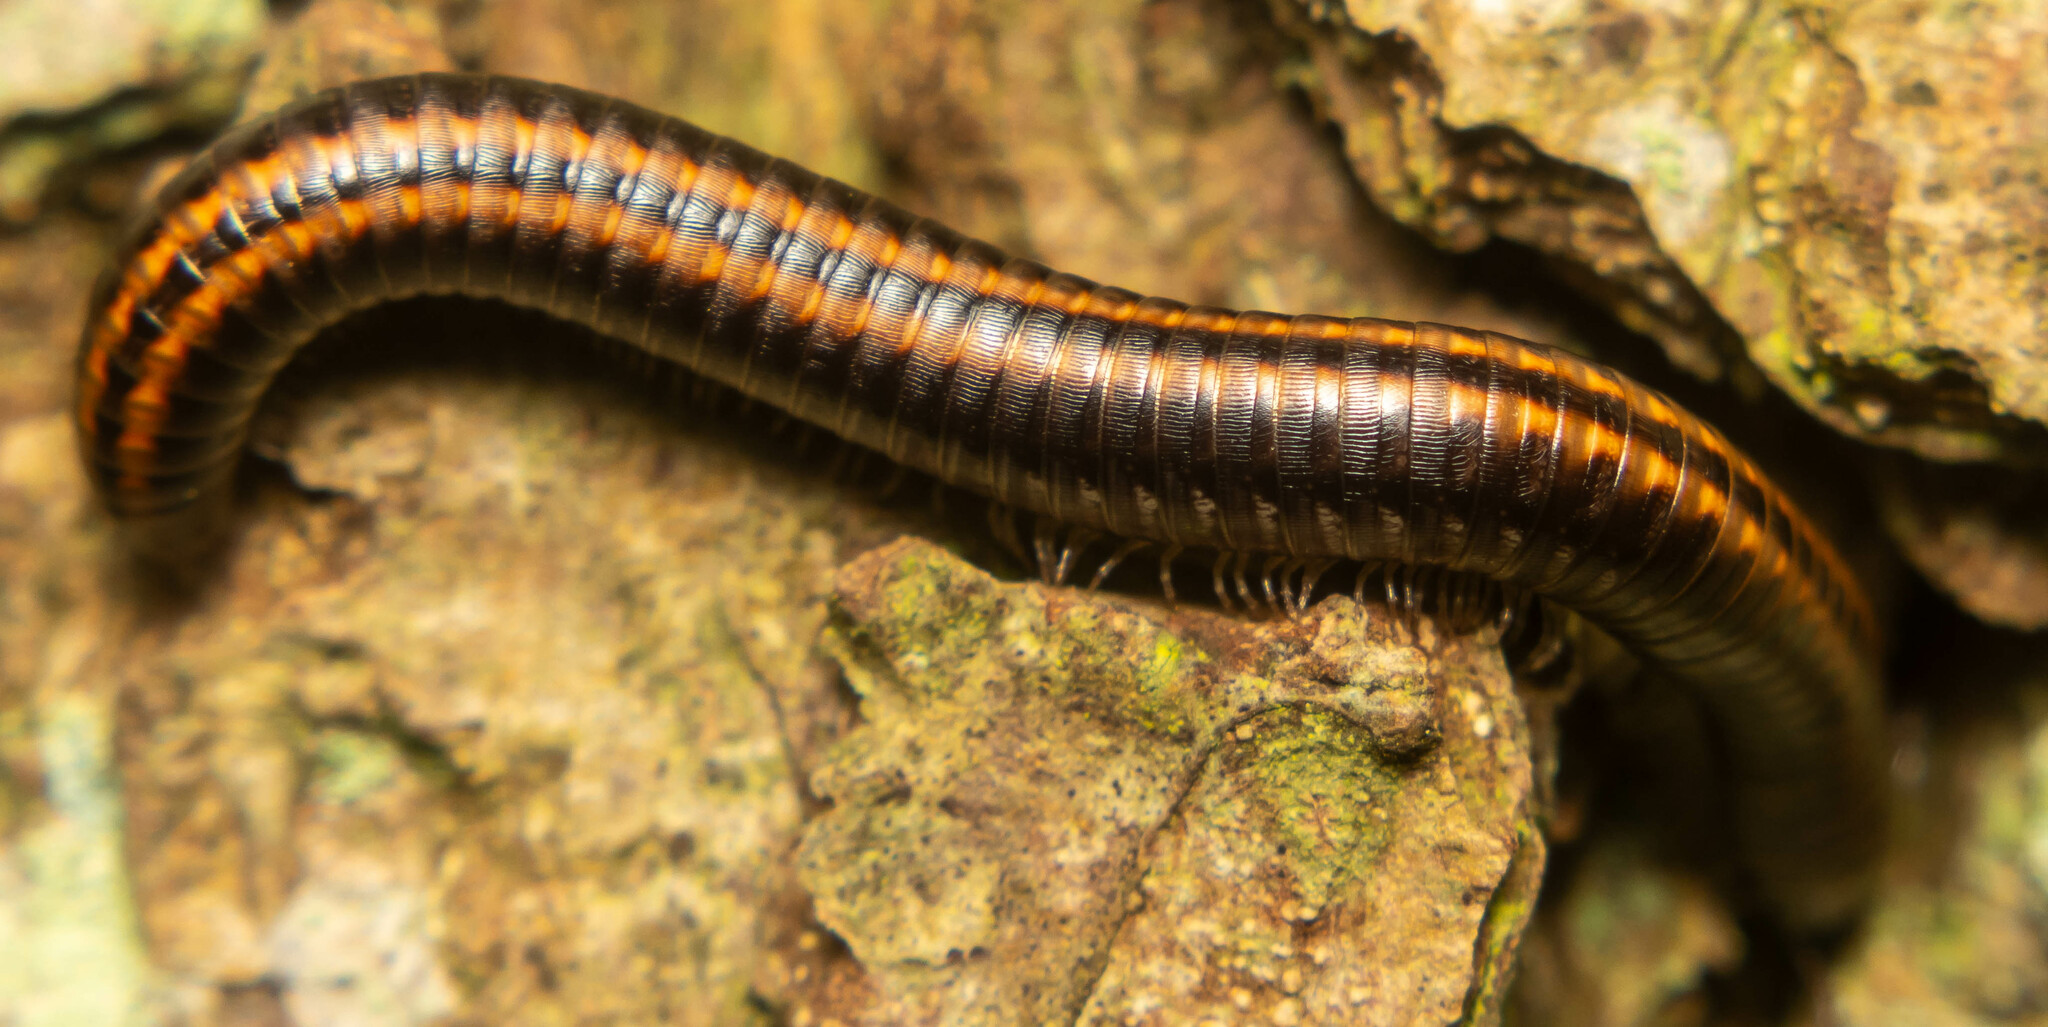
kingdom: Animalia
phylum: Arthropoda
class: Diplopoda
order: Julida
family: Julidae
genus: Ommatoiulus
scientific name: Ommatoiulus sabulosus
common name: Striped millipede
